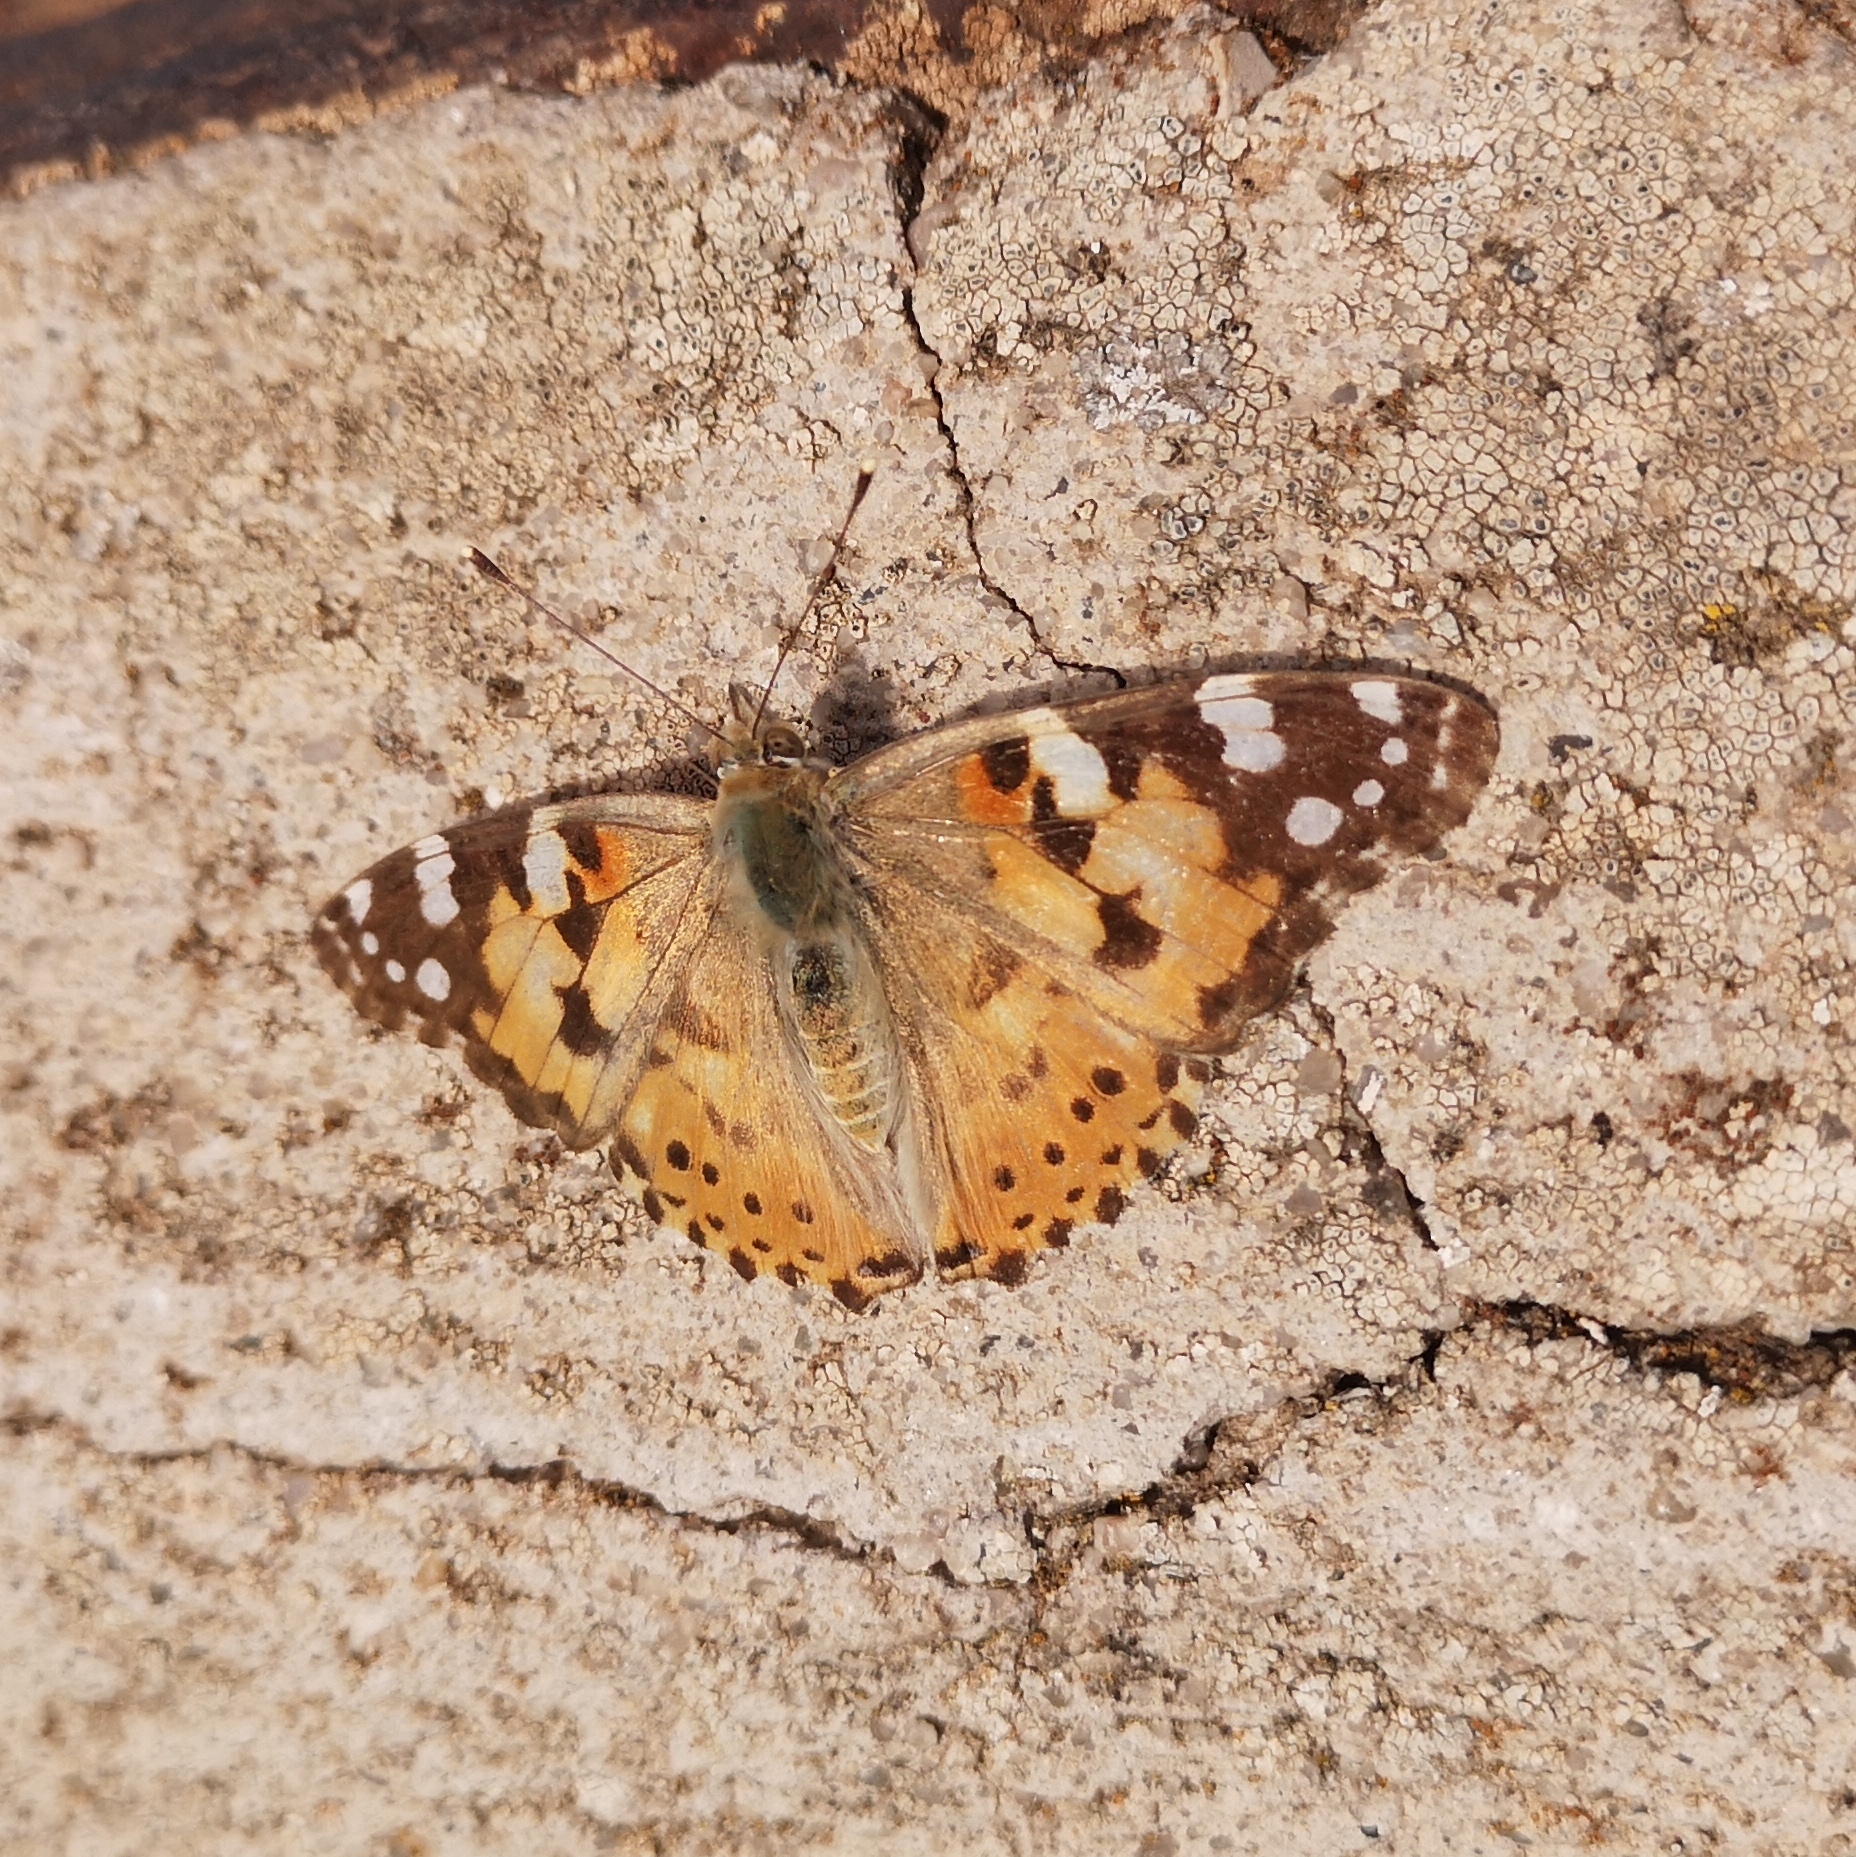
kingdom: Animalia
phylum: Arthropoda
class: Insecta
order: Lepidoptera
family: Nymphalidae
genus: Vanessa
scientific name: Vanessa cardui
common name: Painted lady
